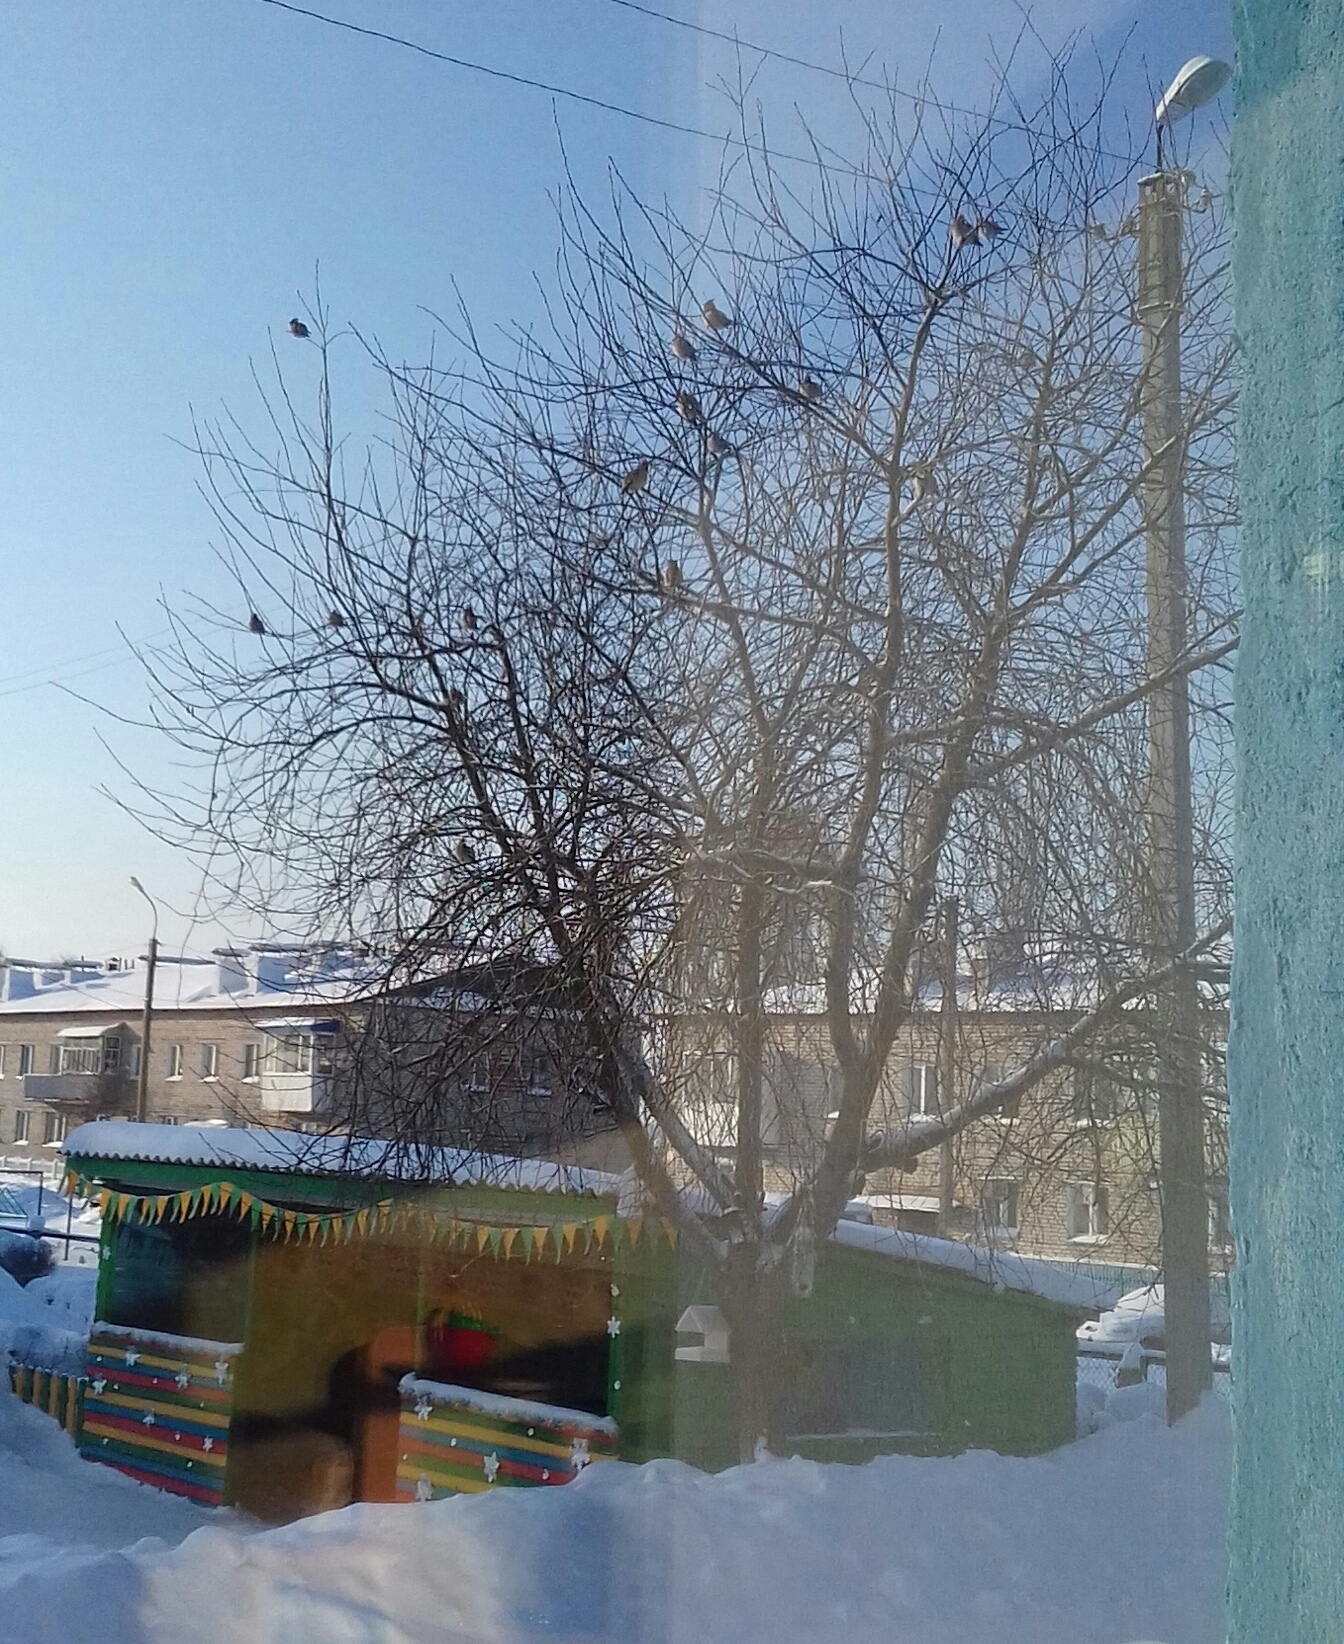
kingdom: Animalia
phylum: Chordata
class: Aves
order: Passeriformes
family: Bombycillidae
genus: Bombycilla
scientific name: Bombycilla garrulus
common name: Bohemian waxwing
